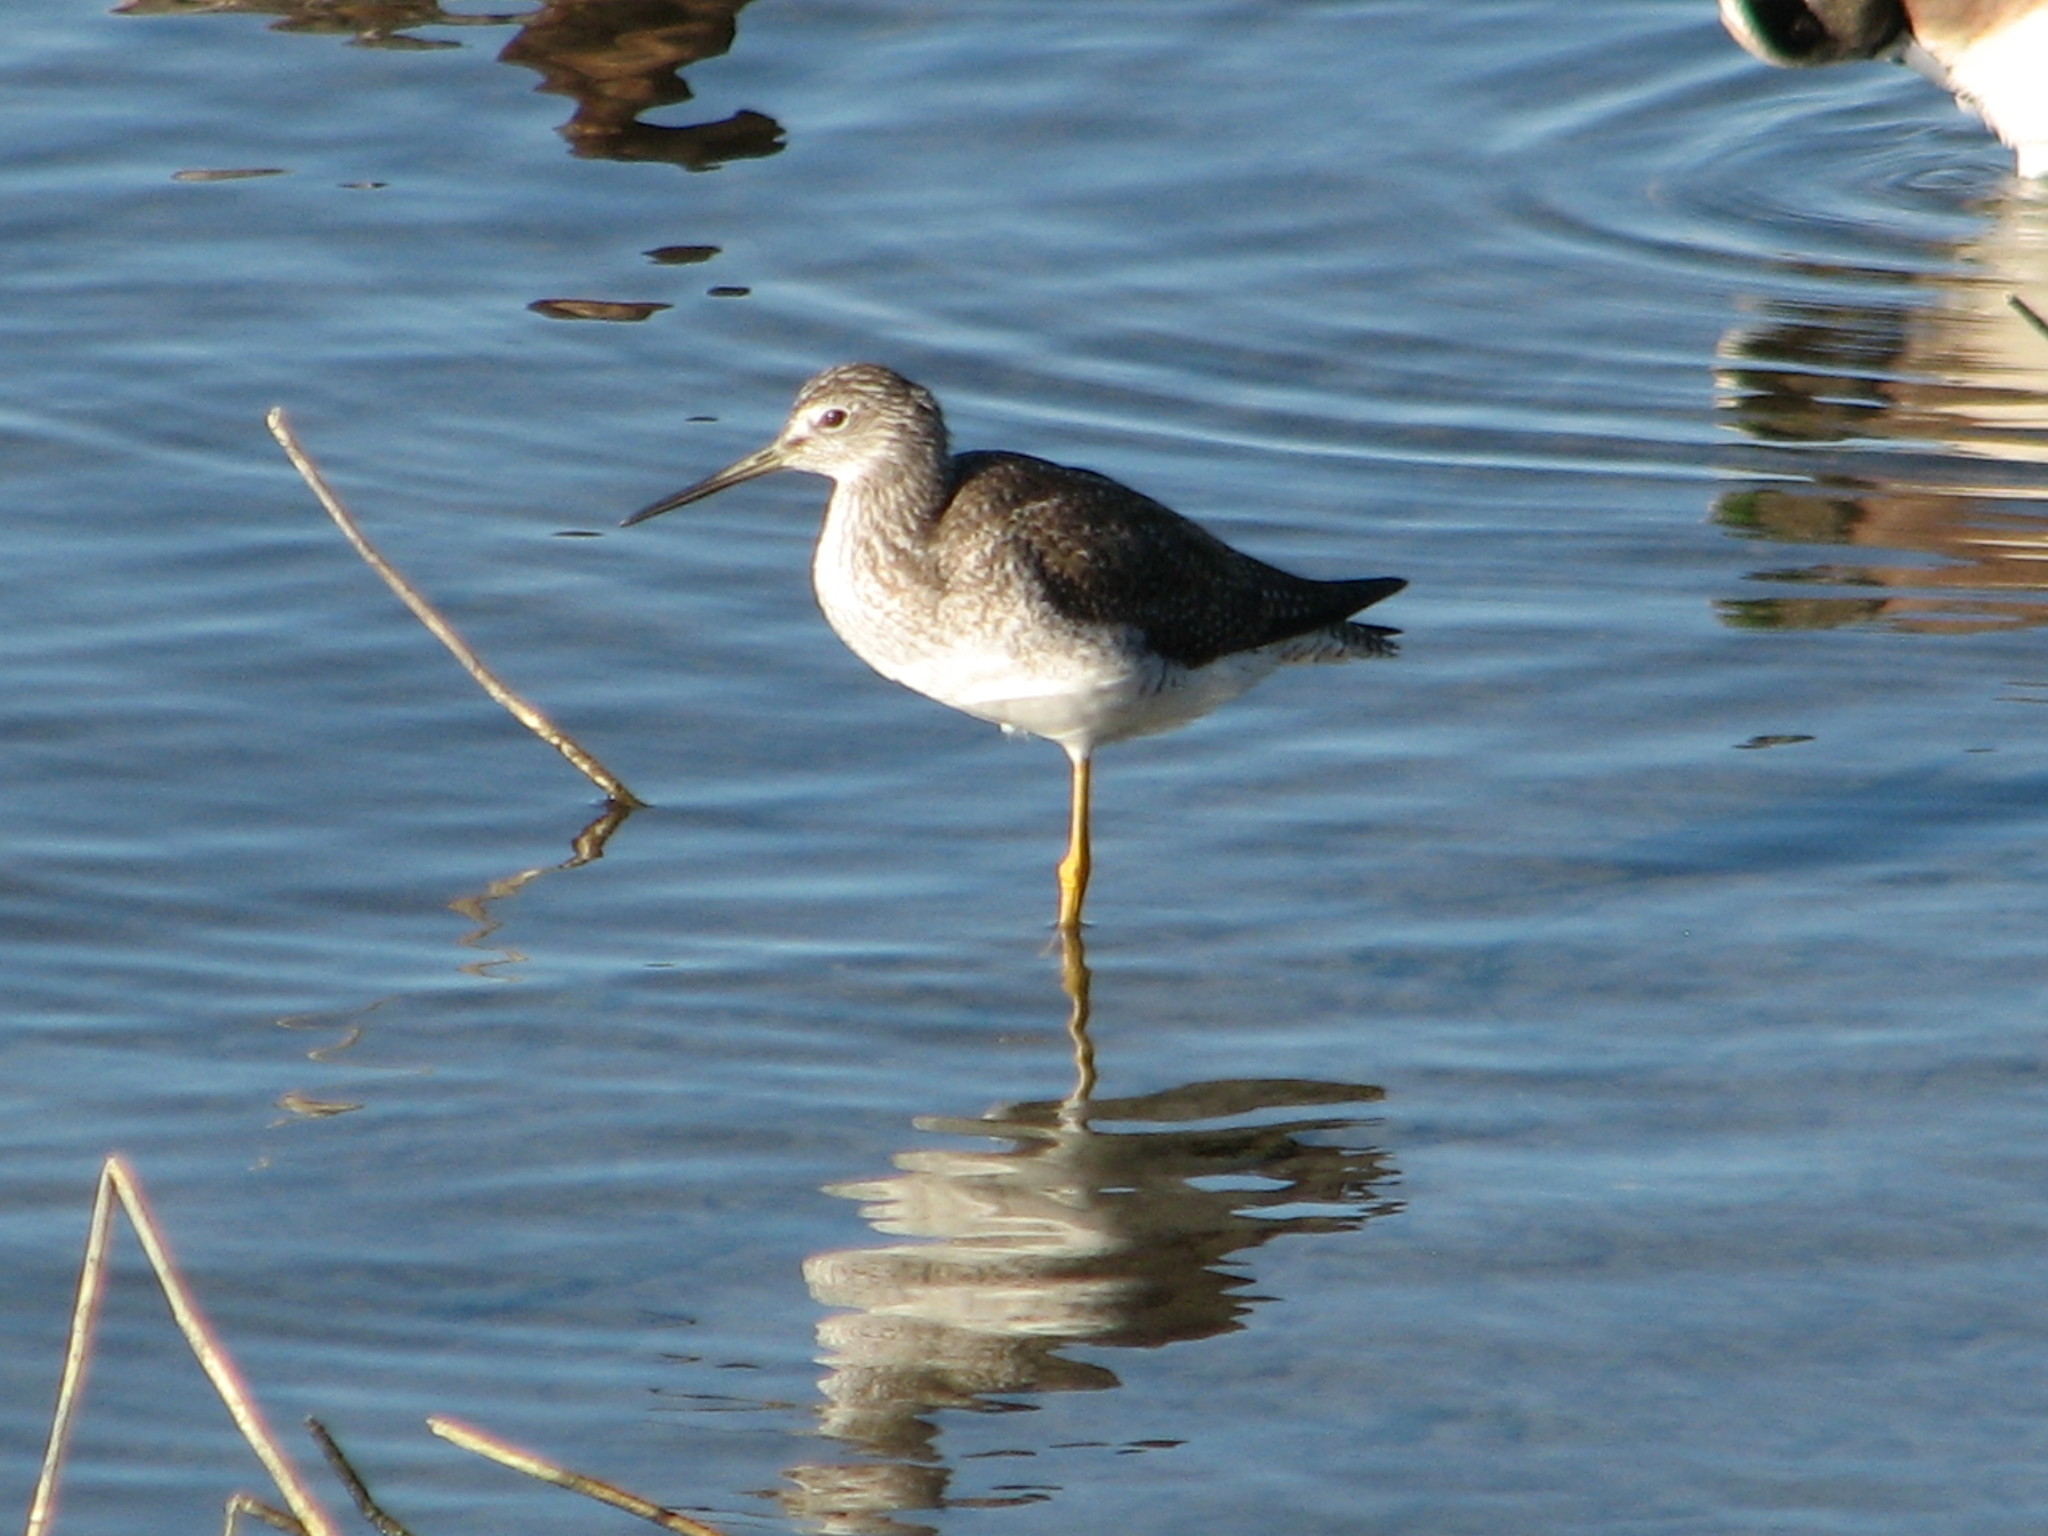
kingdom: Animalia
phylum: Chordata
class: Aves
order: Charadriiformes
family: Scolopacidae
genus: Tringa
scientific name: Tringa melanoleuca
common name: Greater yellowlegs
